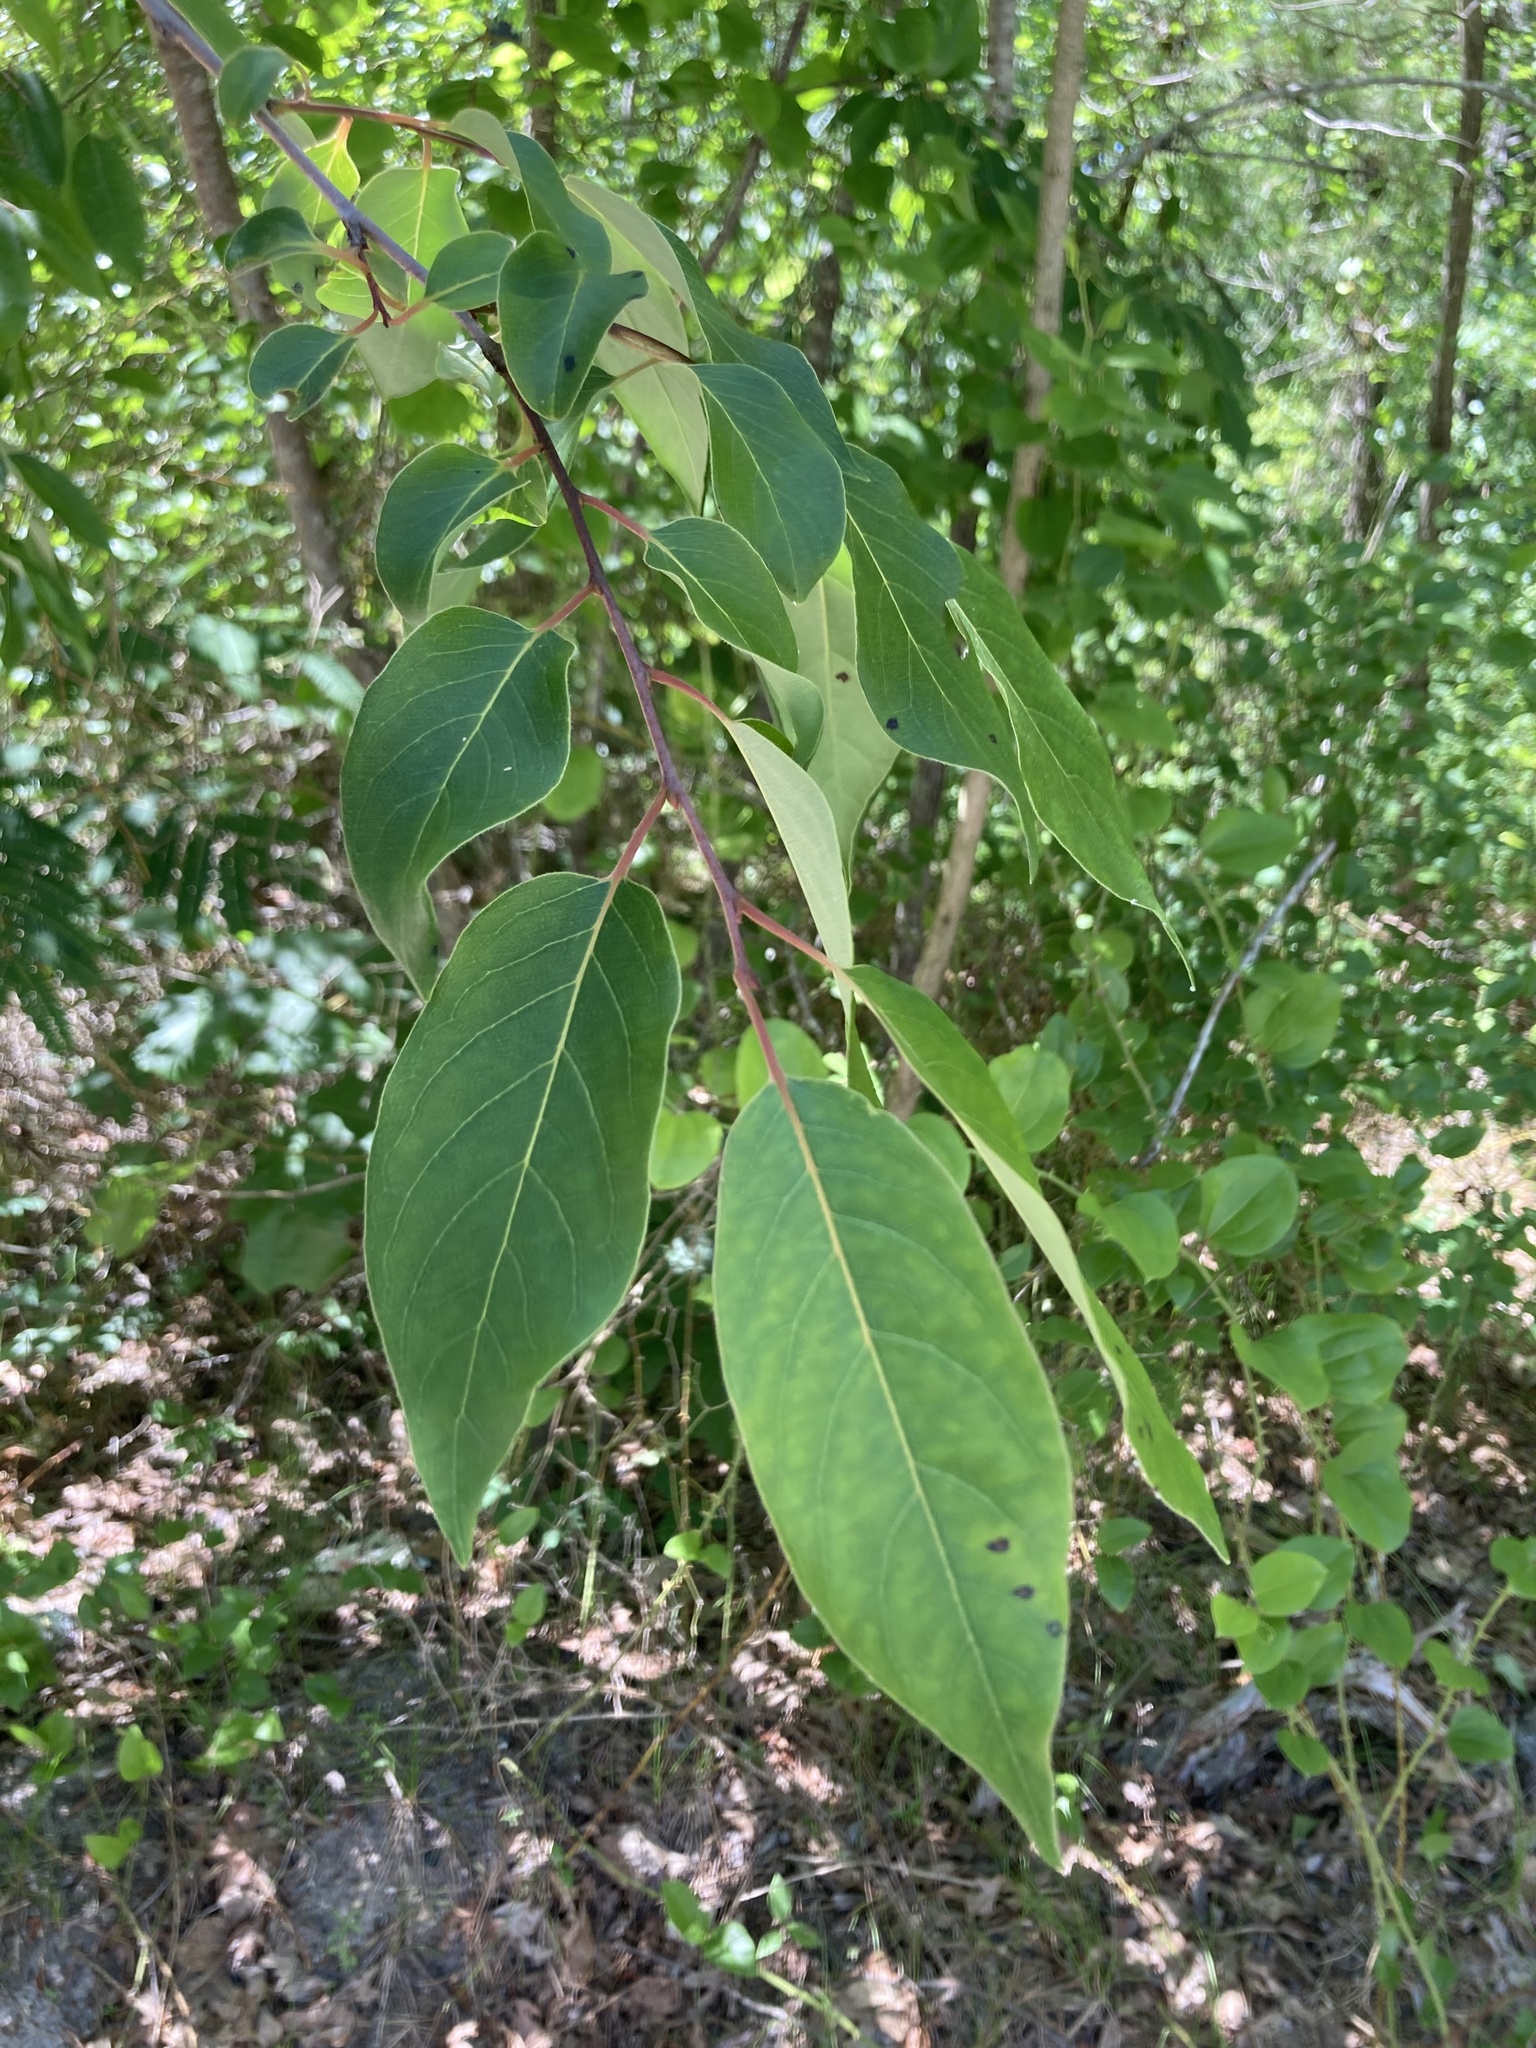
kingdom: Plantae
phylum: Tracheophyta
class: Magnoliopsida
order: Ericales
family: Ebenaceae
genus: Diospyros
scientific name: Diospyros virginiana
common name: Persimmon
